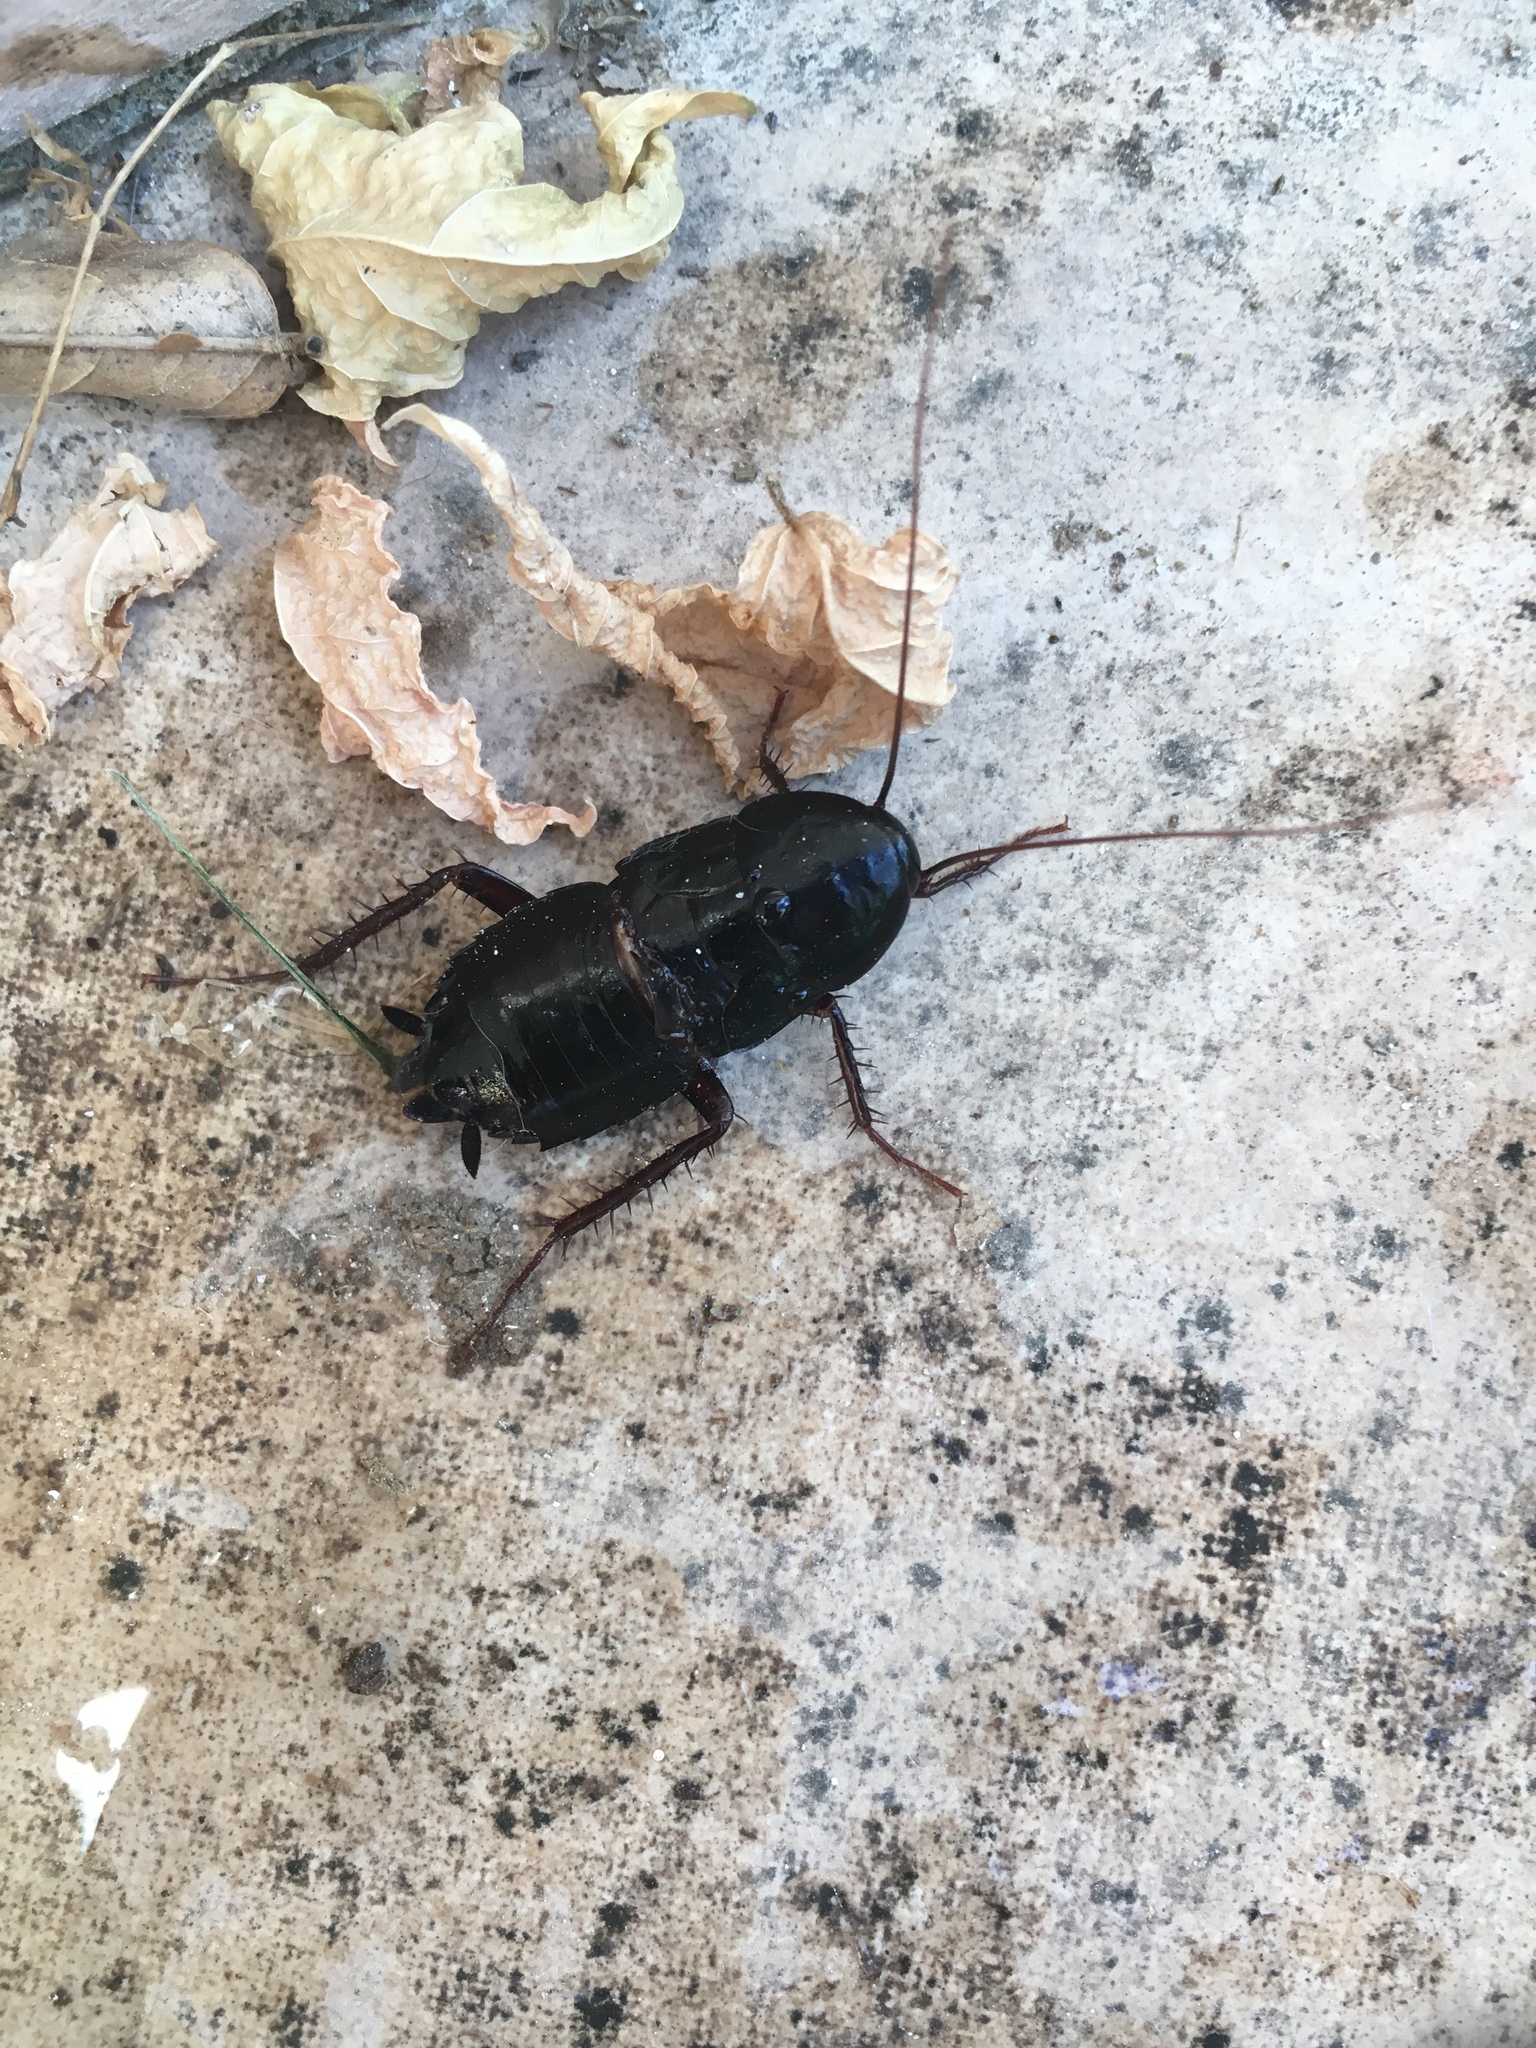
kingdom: Animalia
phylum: Arthropoda
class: Insecta
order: Blattodea
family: Blattidae
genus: Blatta
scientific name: Blatta orientalis
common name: Oriental cockroach
